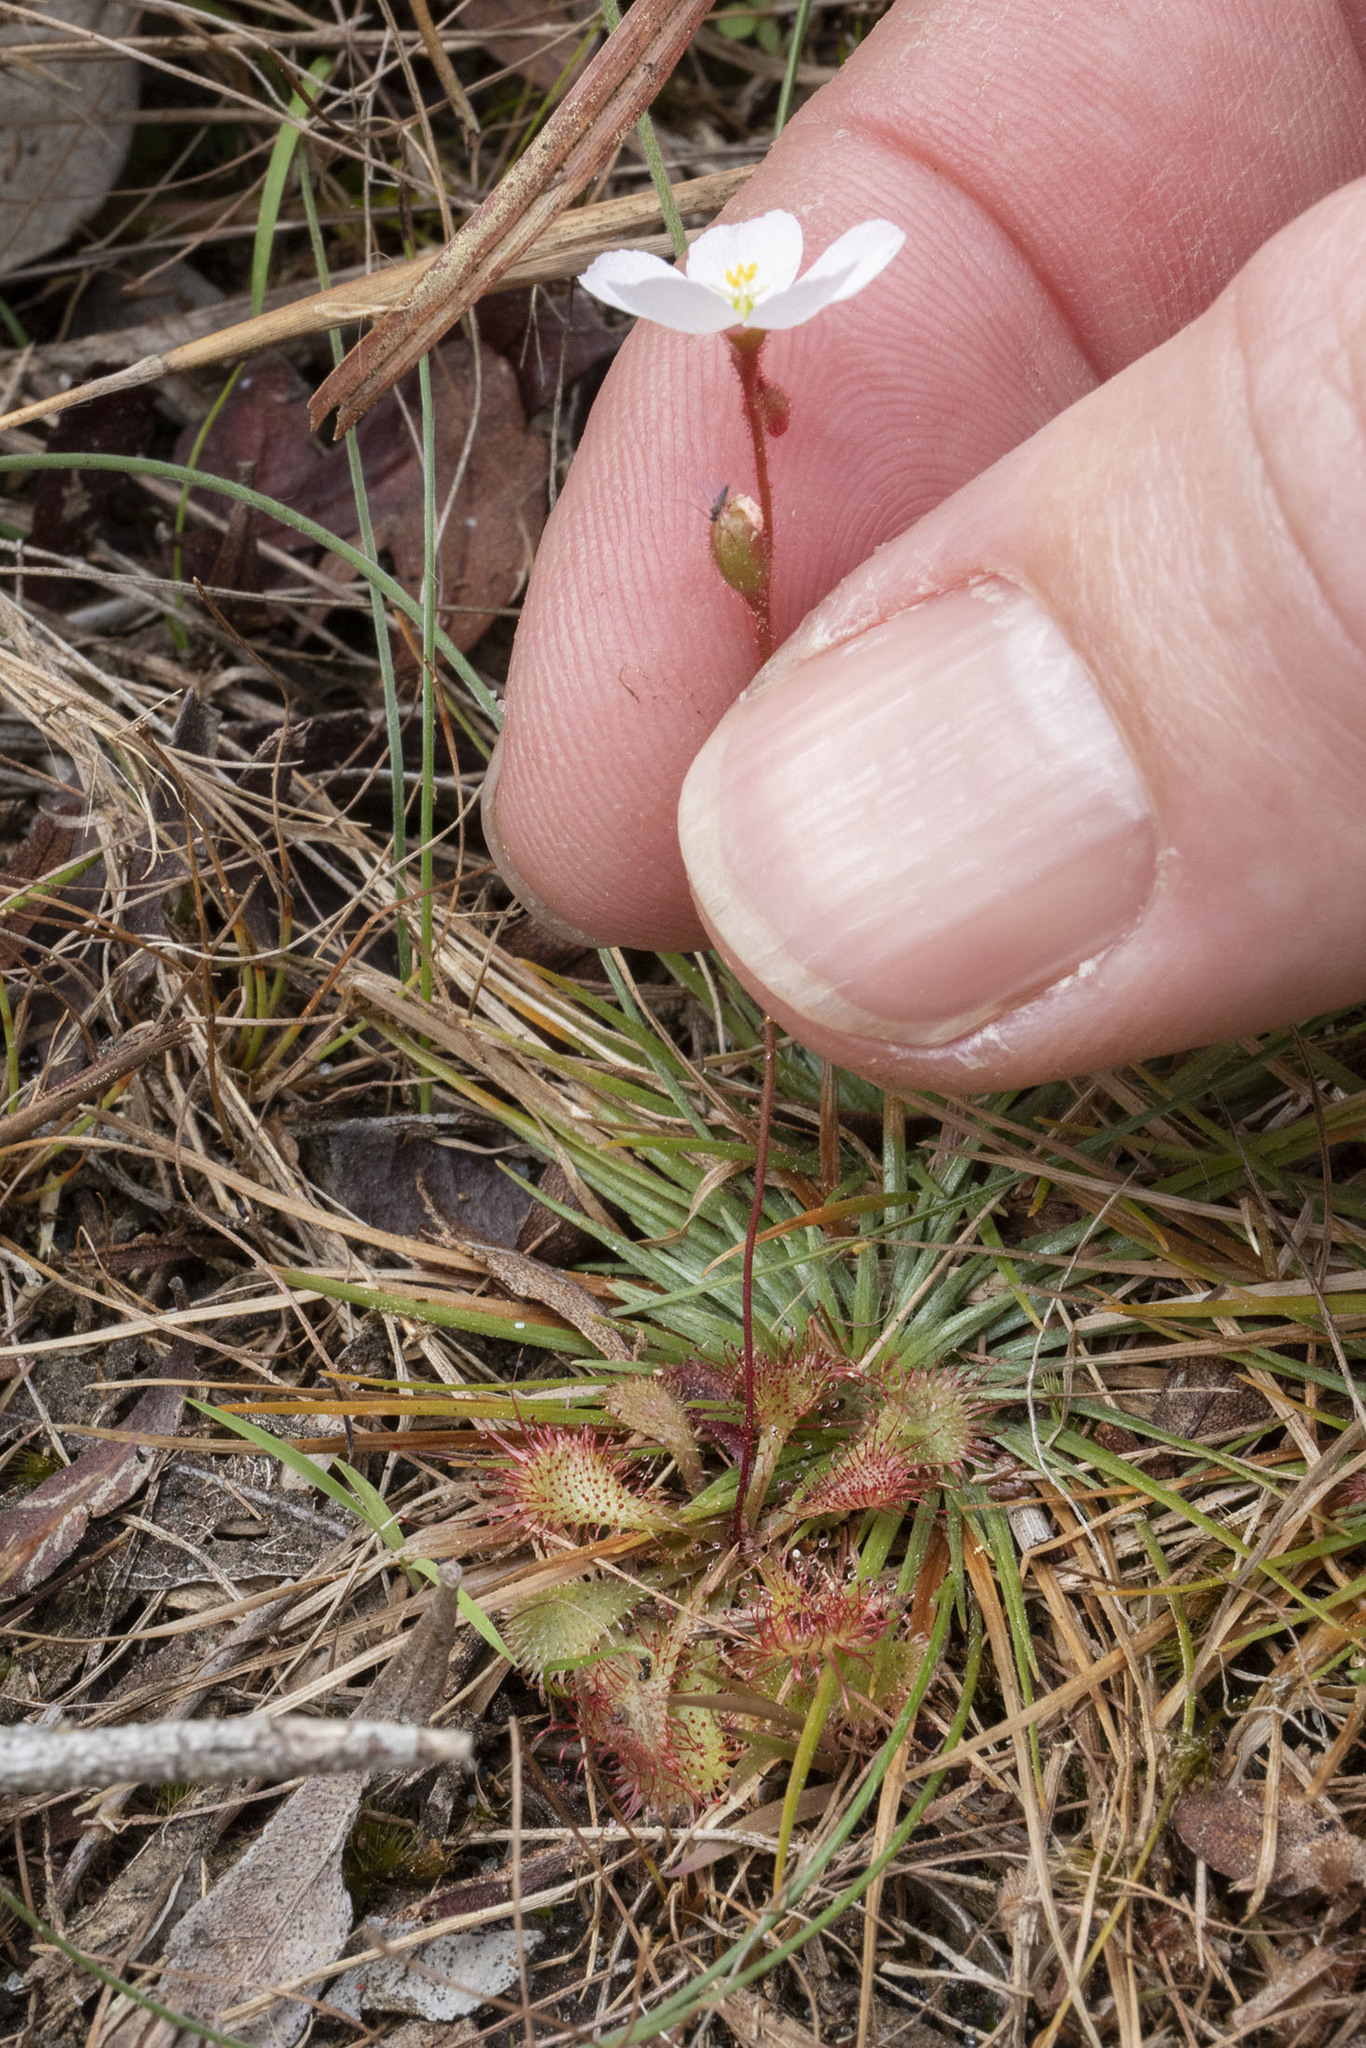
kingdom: Plantae
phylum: Tracheophyta
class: Magnoliopsida
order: Caryophyllales
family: Droseraceae
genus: Drosera
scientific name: Drosera brevifolia
